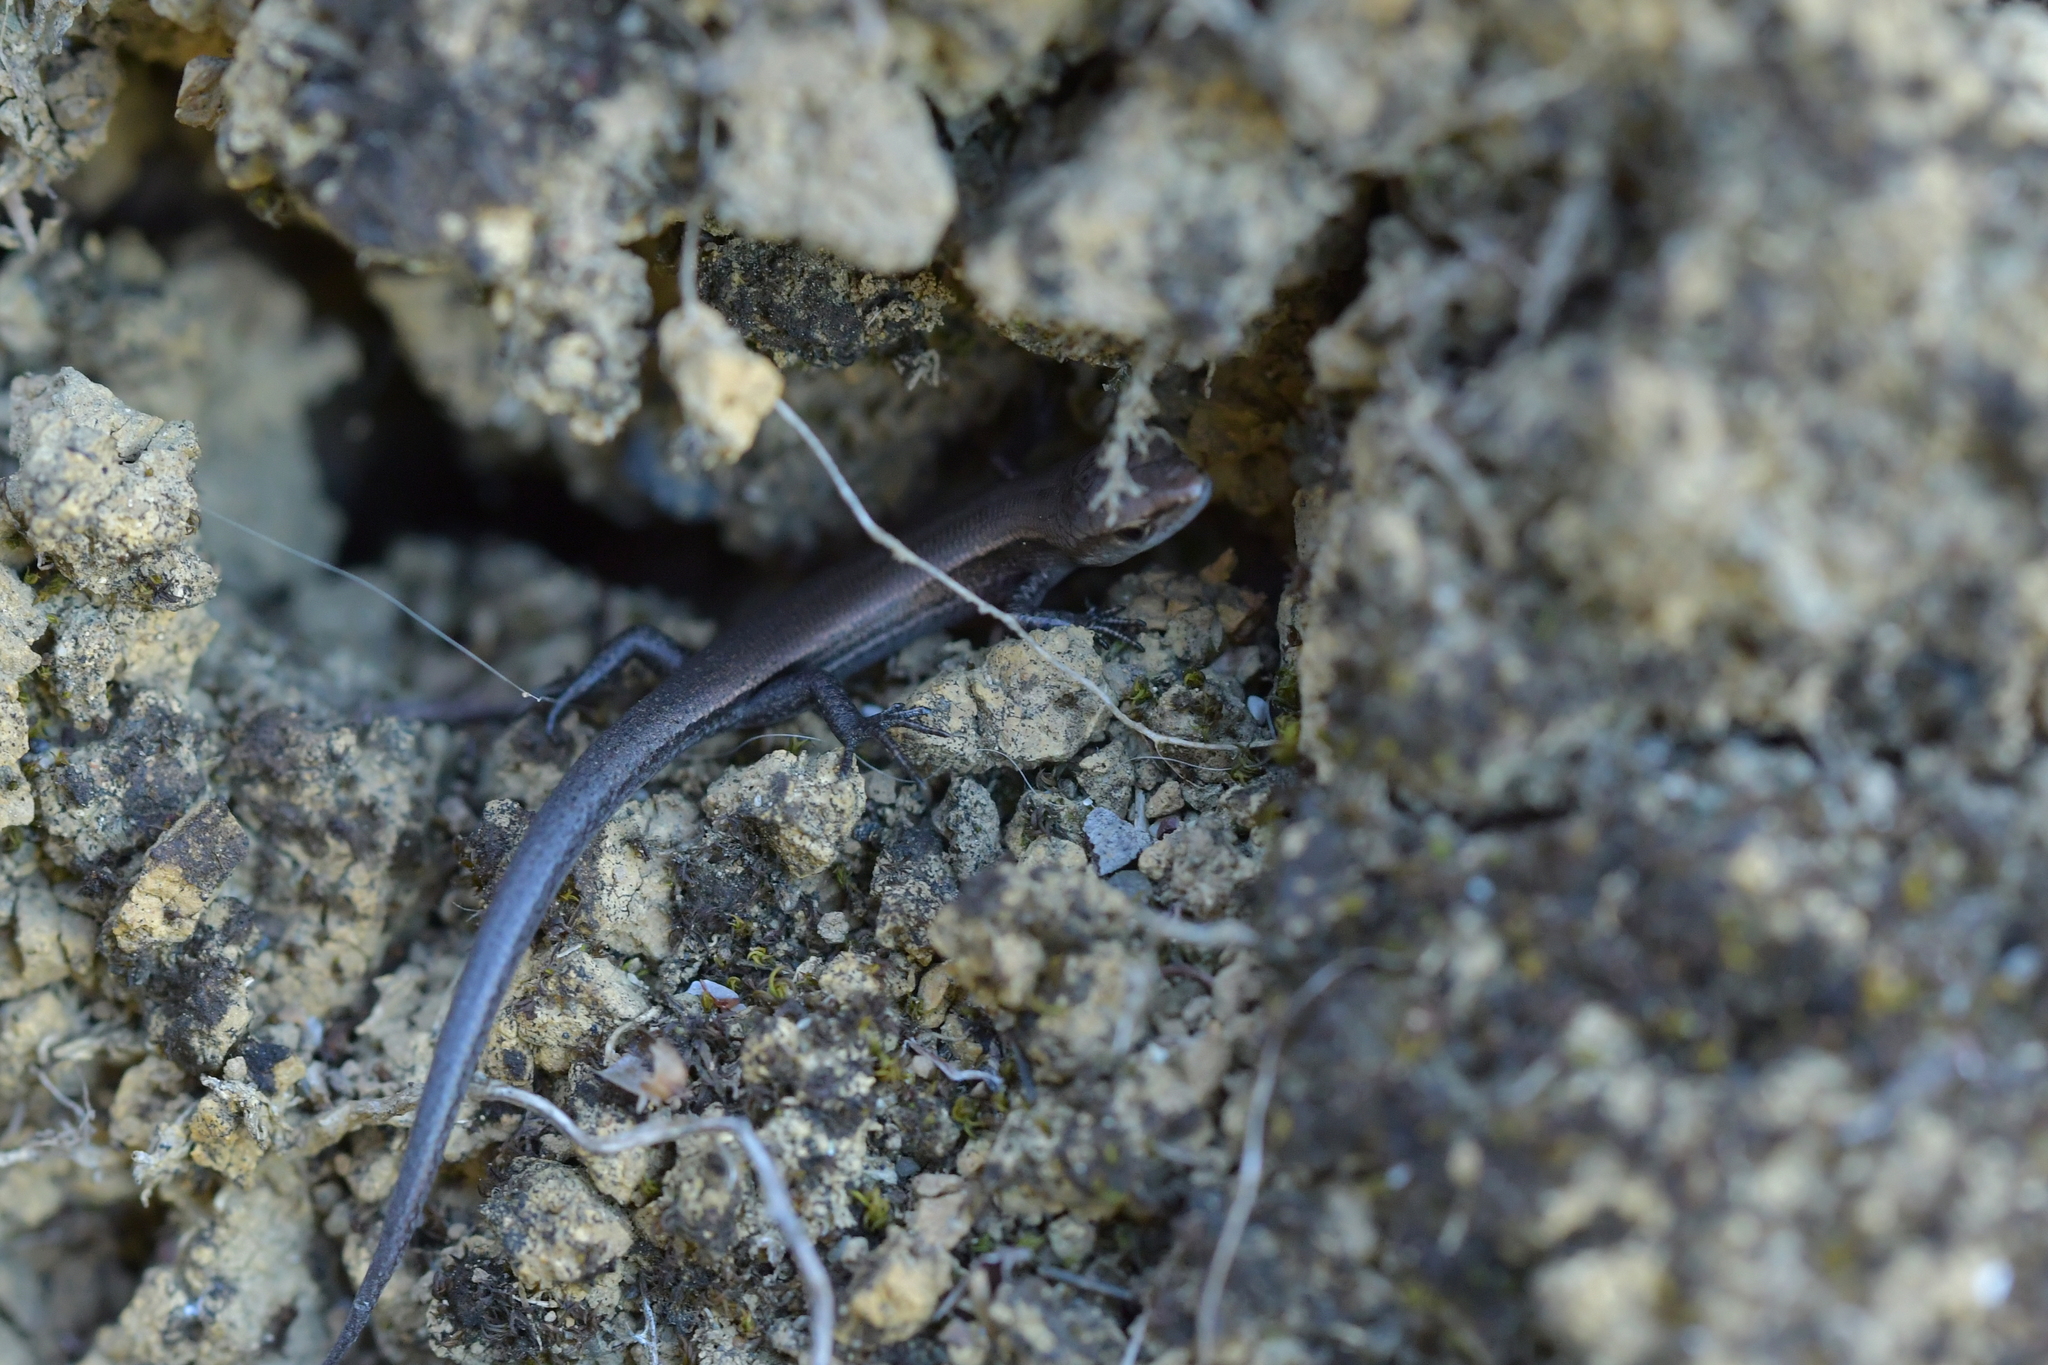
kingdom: Animalia
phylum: Chordata
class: Squamata
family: Scincidae
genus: Lampropholis
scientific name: Lampropholis delicata
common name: Plague skink
